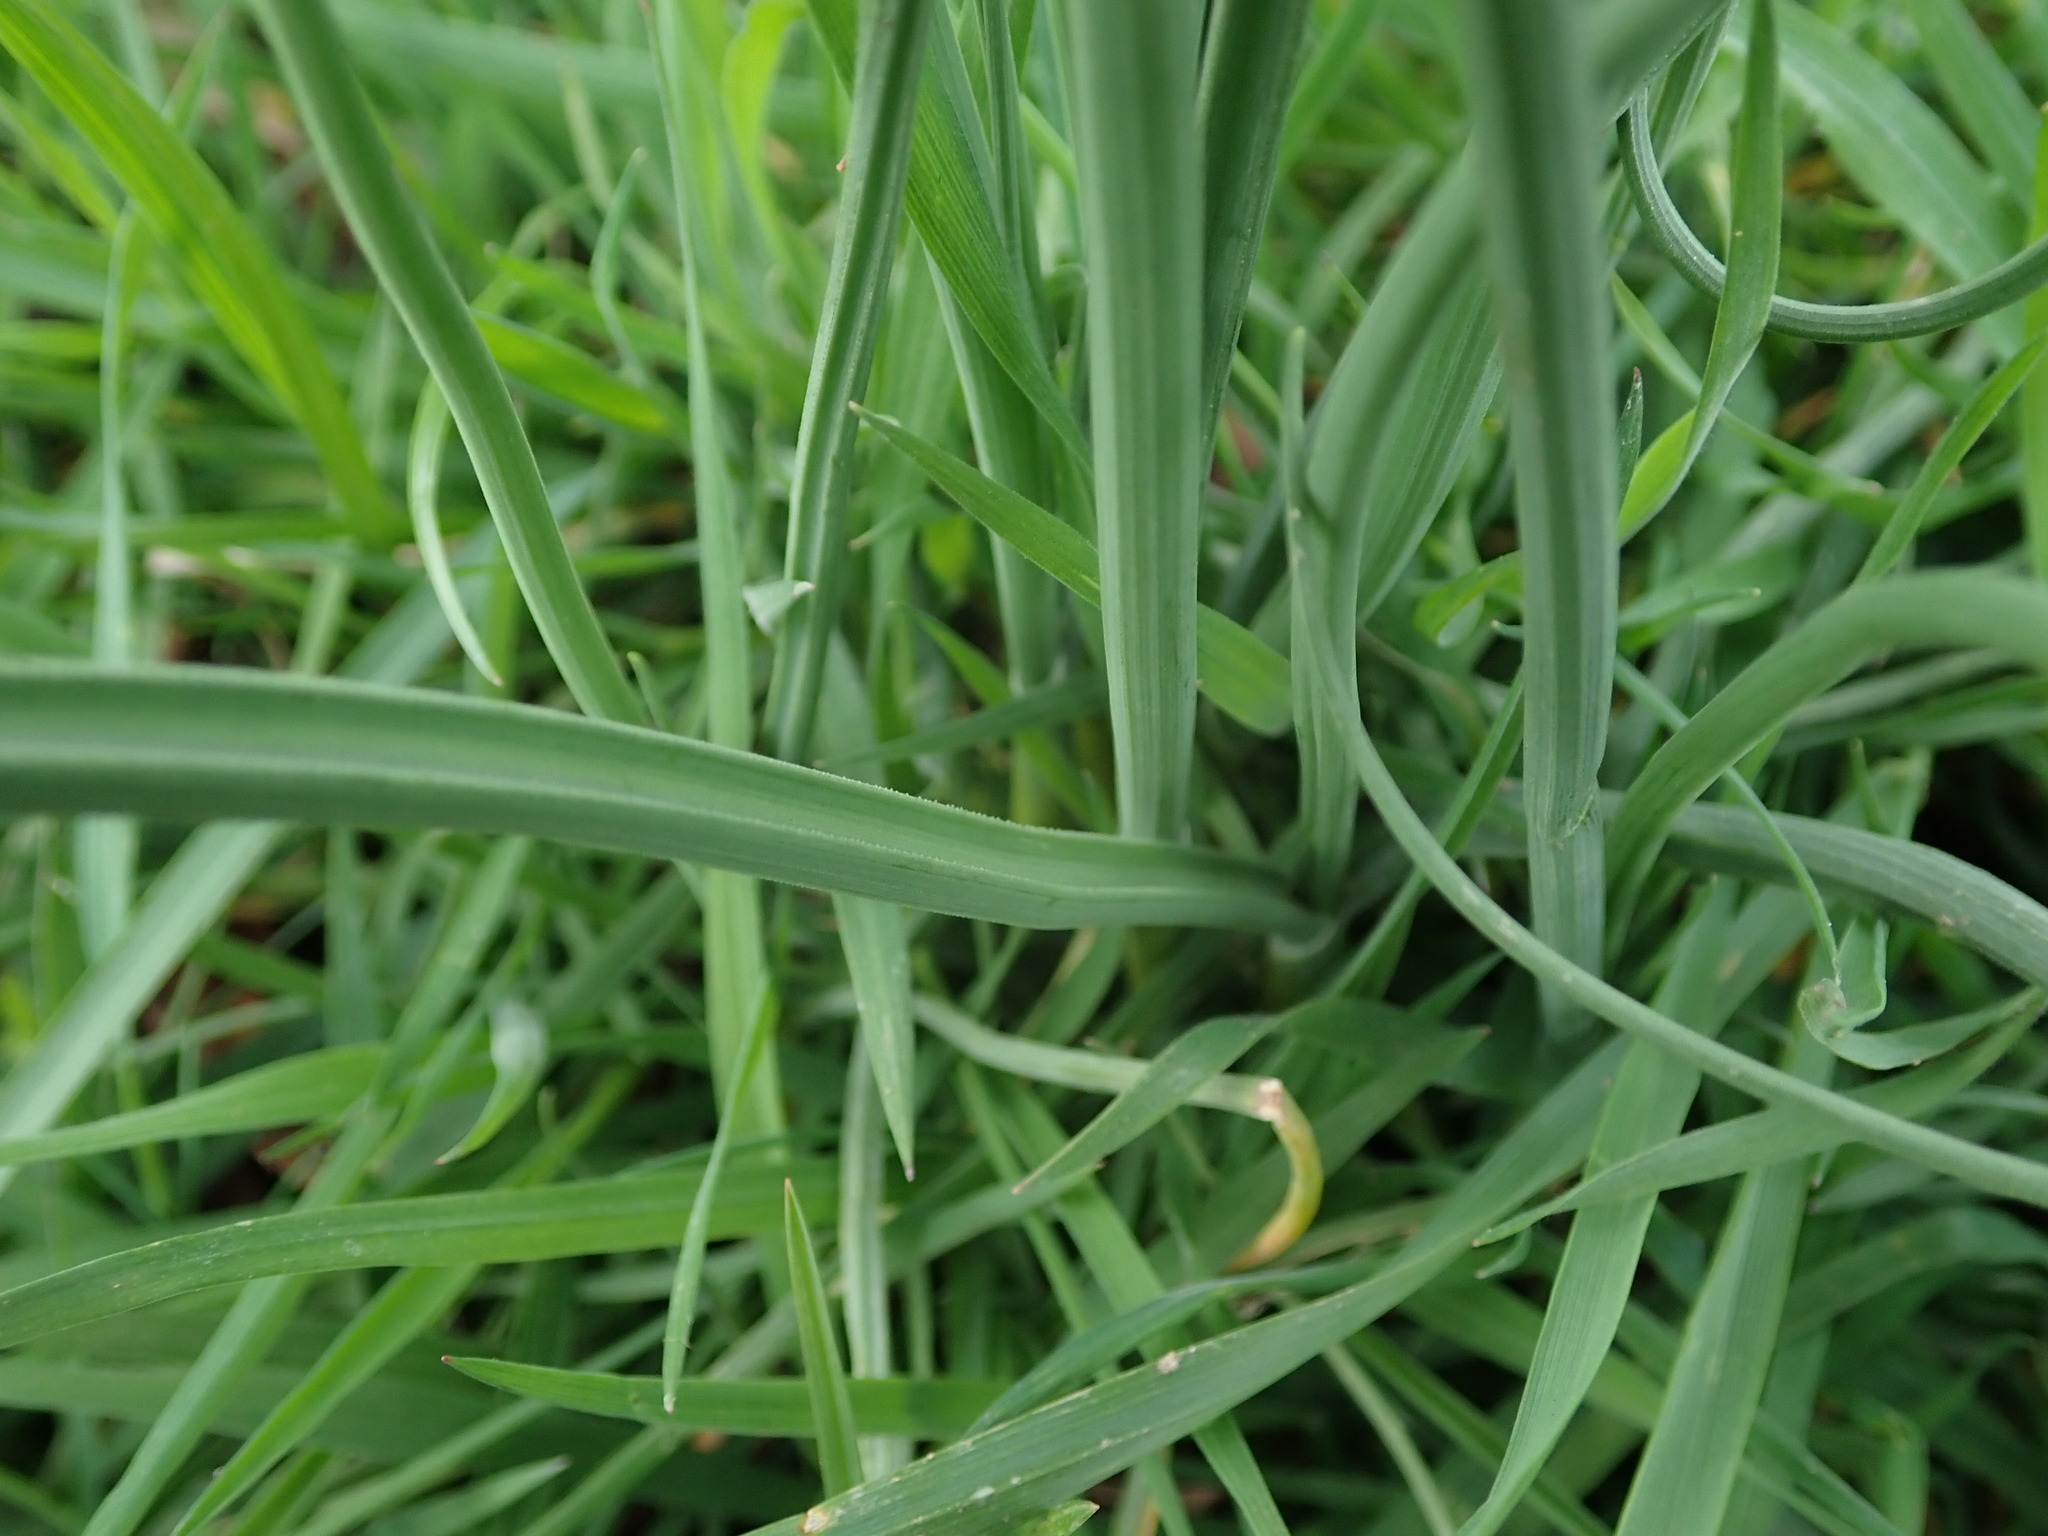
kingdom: Plantae
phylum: Tracheophyta
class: Liliopsida
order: Asparagales
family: Amaryllidaceae
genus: Allium
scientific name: Allium vineale
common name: Crow garlic
